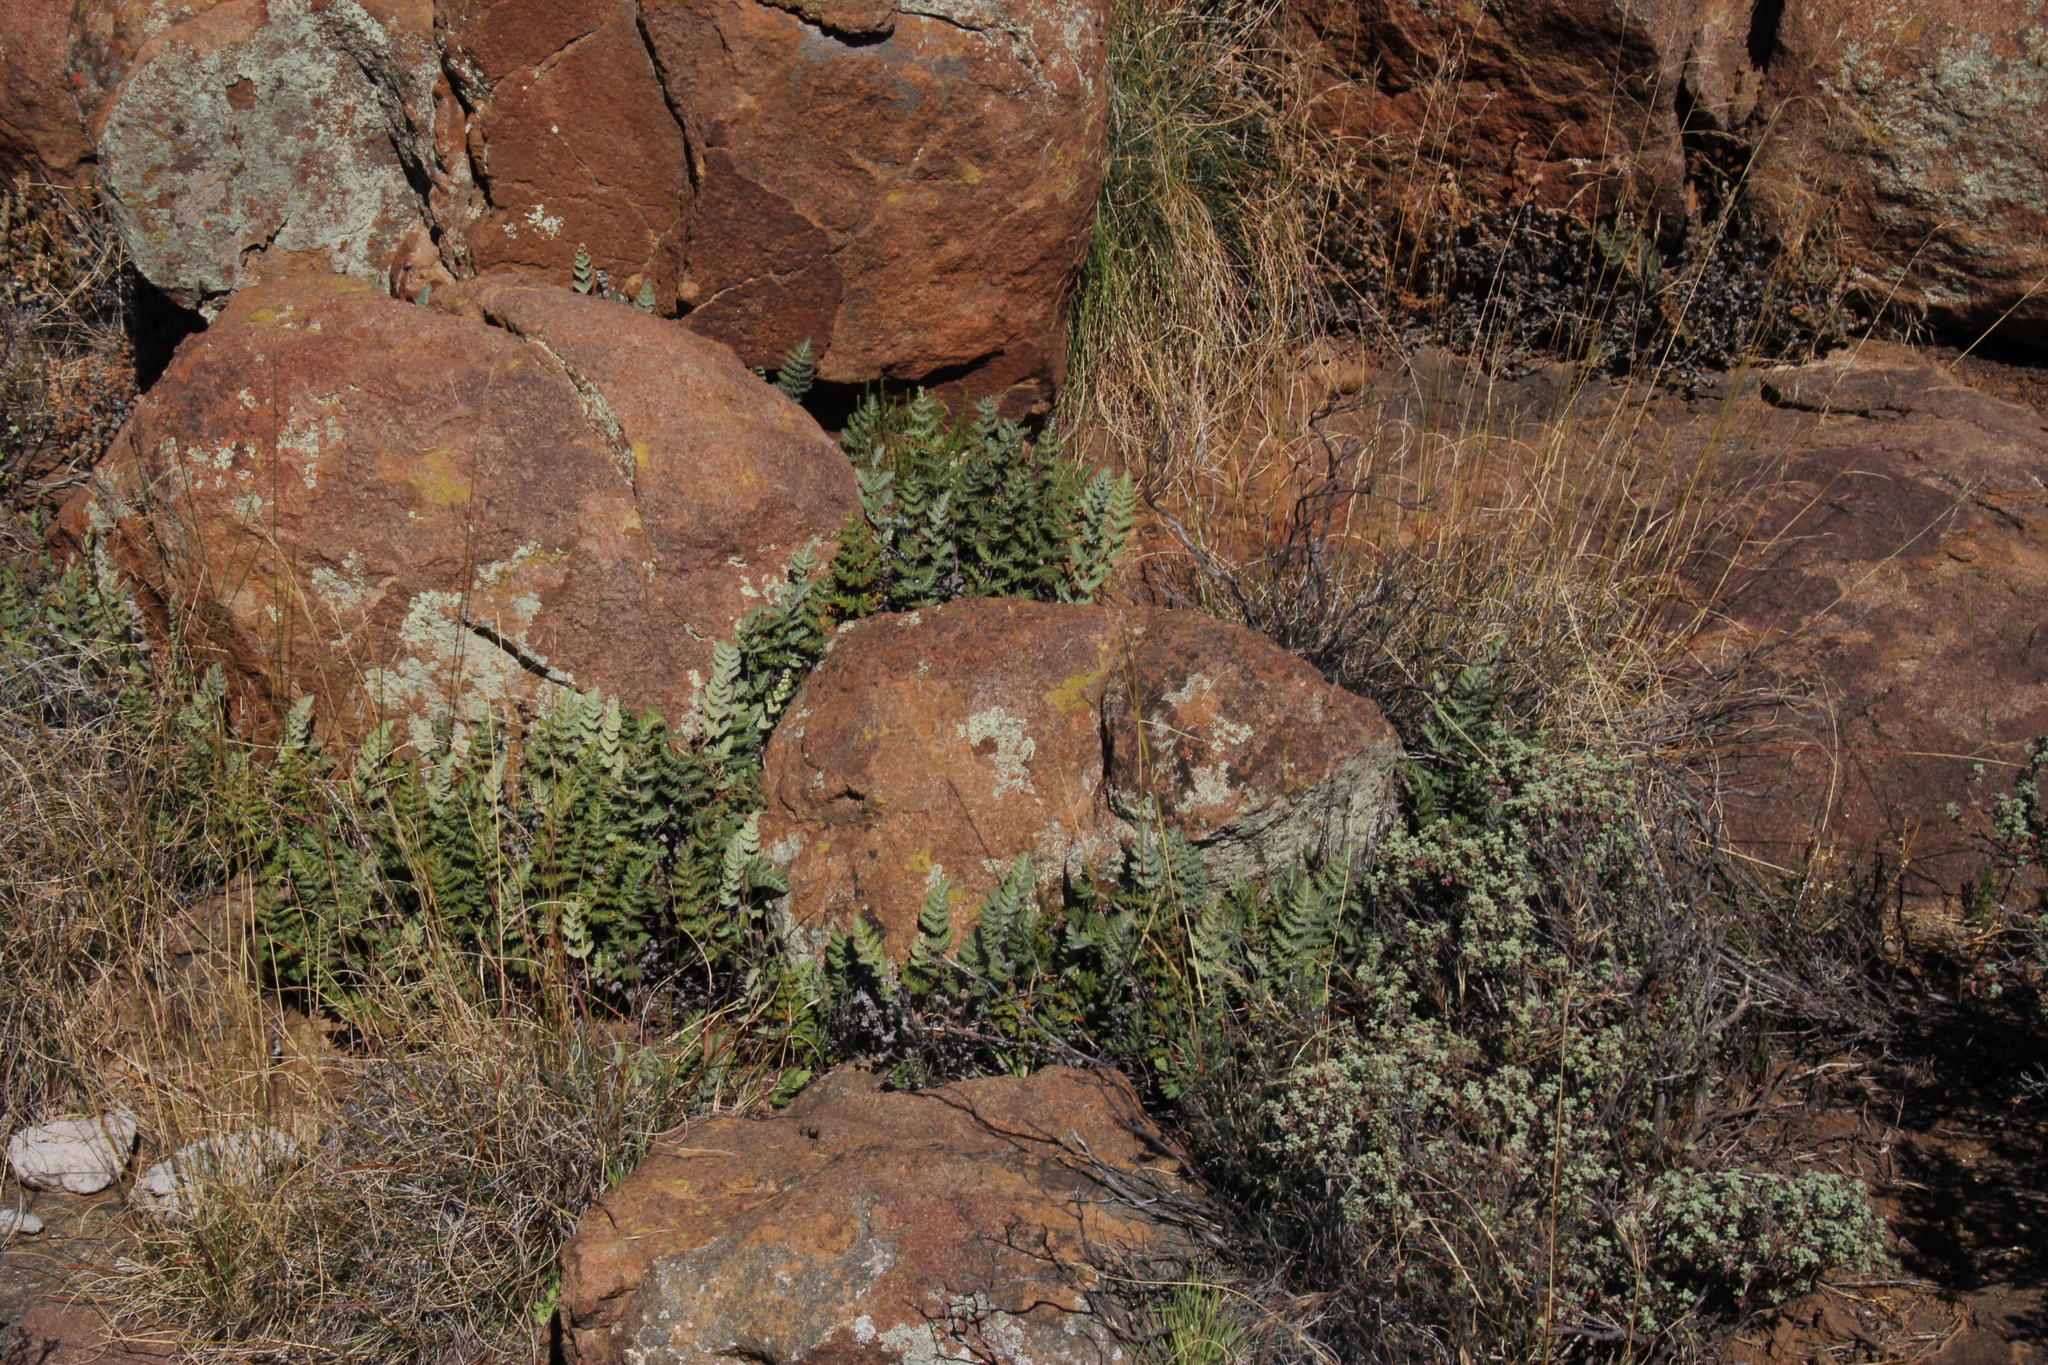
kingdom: Plantae
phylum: Tracheophyta
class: Polypodiopsida
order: Polypodiales
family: Pteridaceae
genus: Cheilanthes
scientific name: Cheilanthes eckloniana
